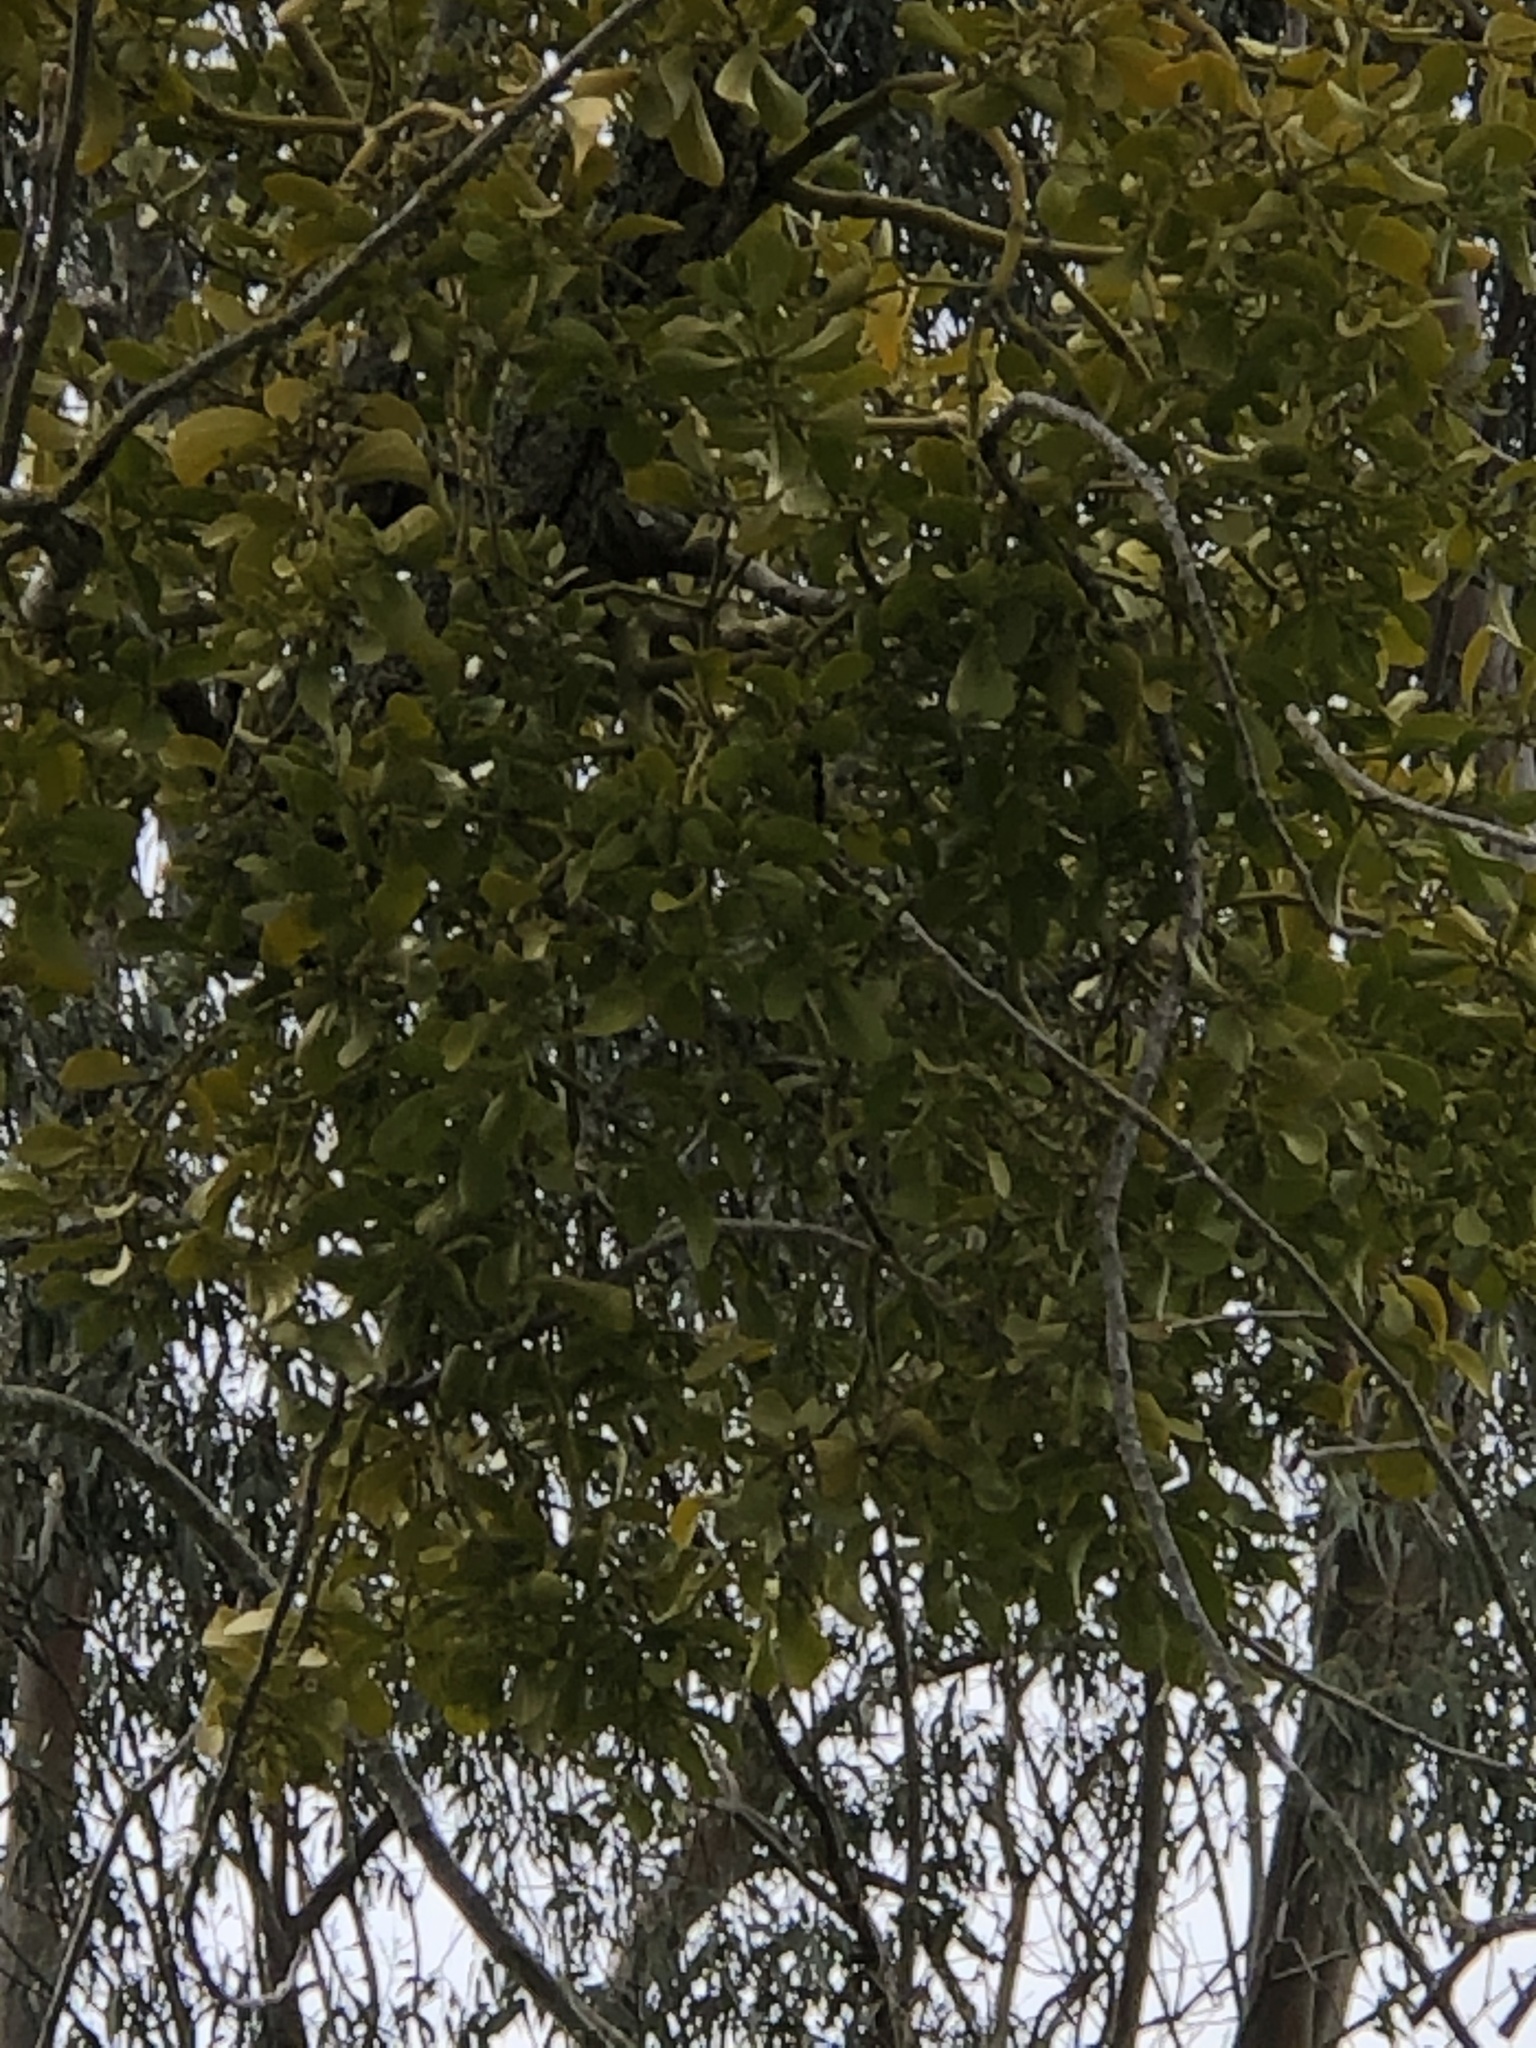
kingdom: Plantae
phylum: Tracheophyta
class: Magnoliopsida
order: Santalales
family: Viscaceae
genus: Phoradendron
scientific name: Phoradendron leucarpum
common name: Pacific mistletoe
